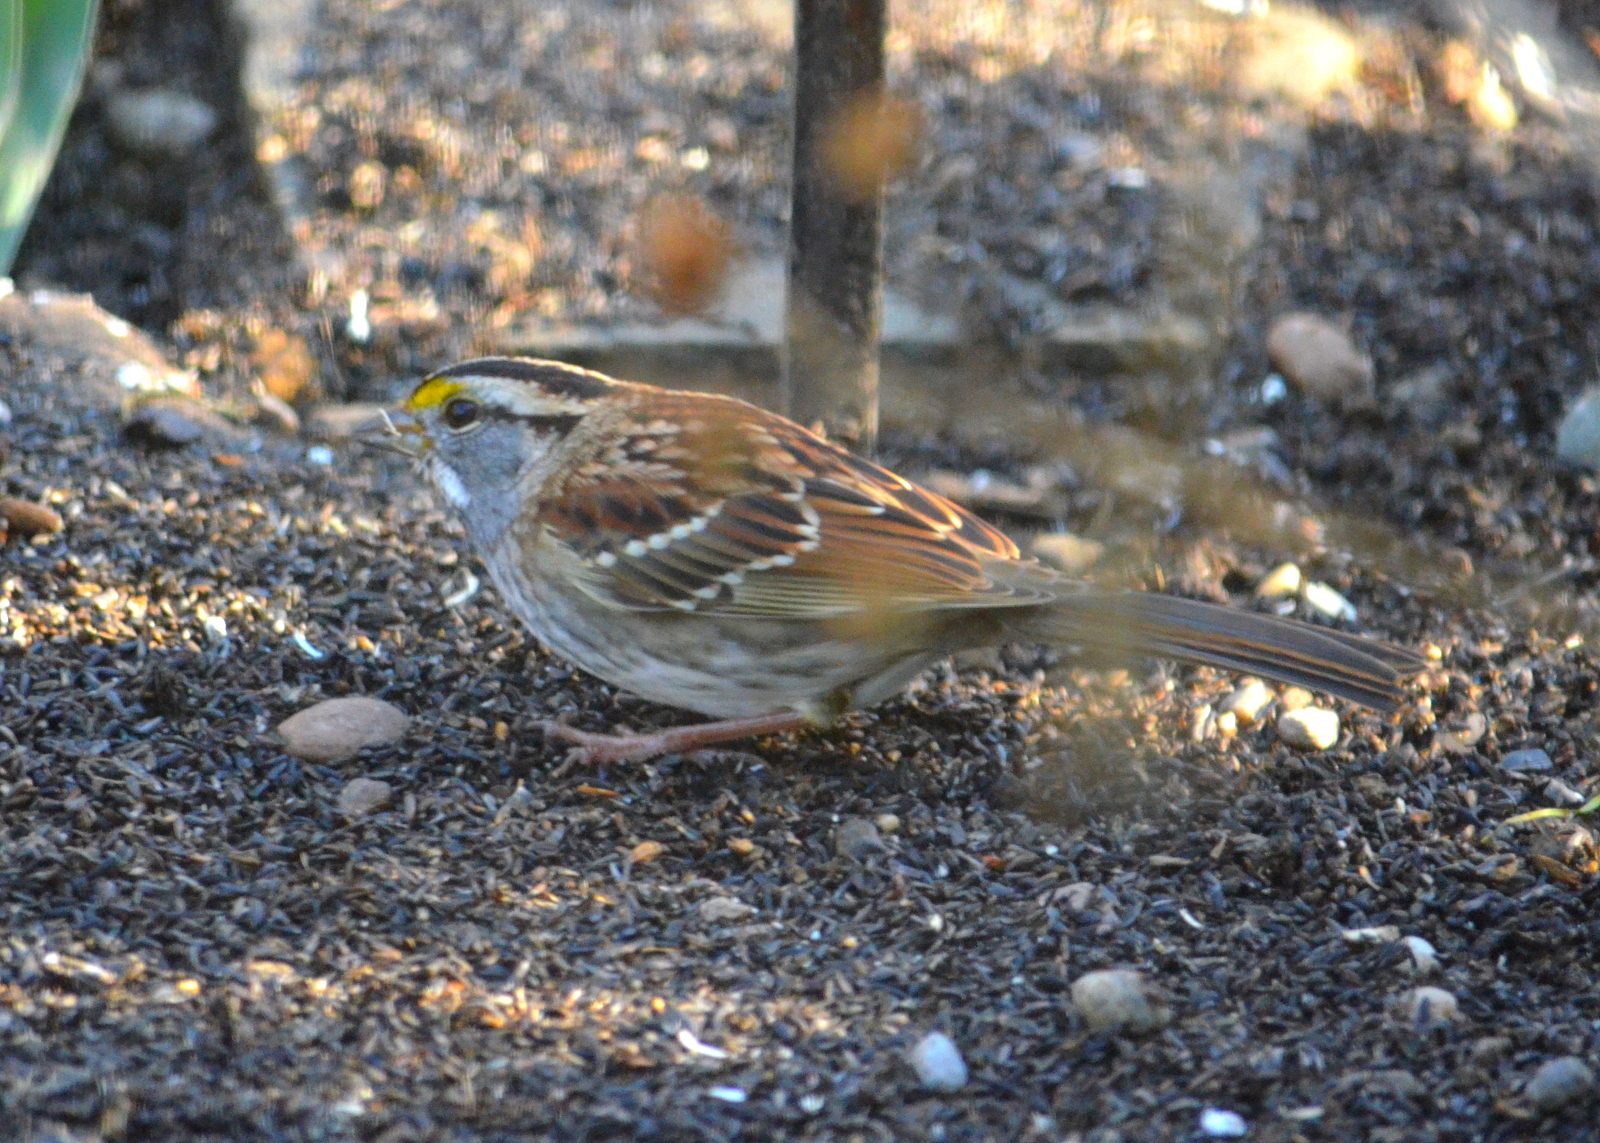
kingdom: Animalia
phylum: Chordata
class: Aves
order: Passeriformes
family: Passerellidae
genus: Zonotrichia
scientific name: Zonotrichia albicollis
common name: White-throated sparrow
